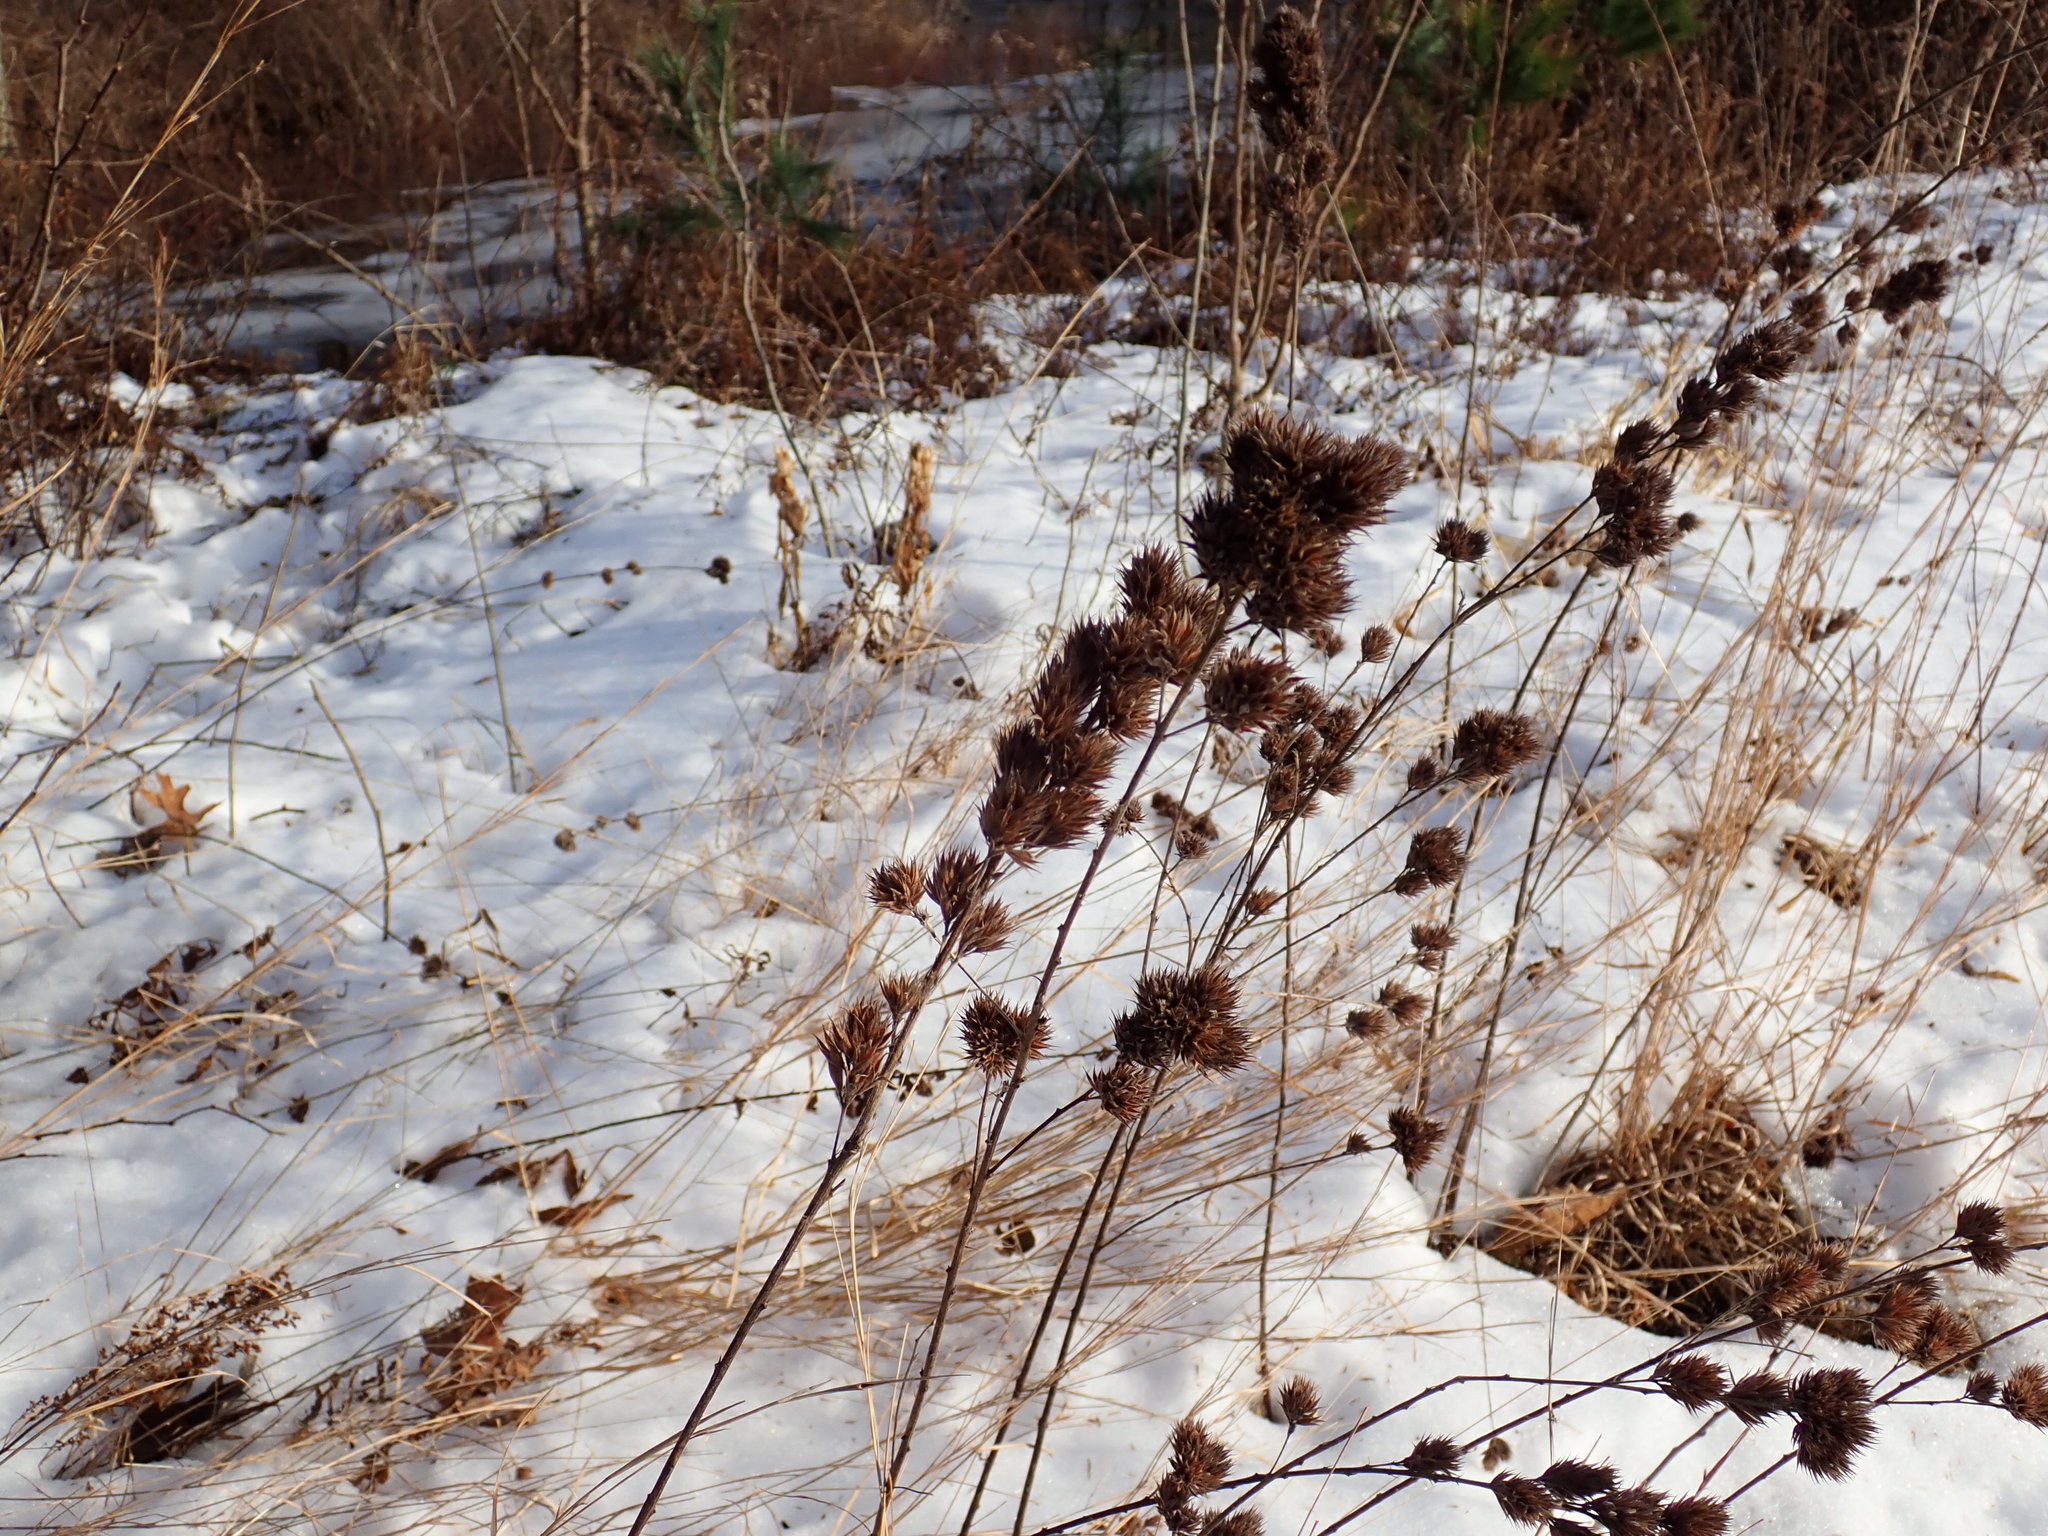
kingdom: Plantae
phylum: Tracheophyta
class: Magnoliopsida
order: Fabales
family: Fabaceae
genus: Lespedeza
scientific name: Lespedeza capitata
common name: Dusty clover
